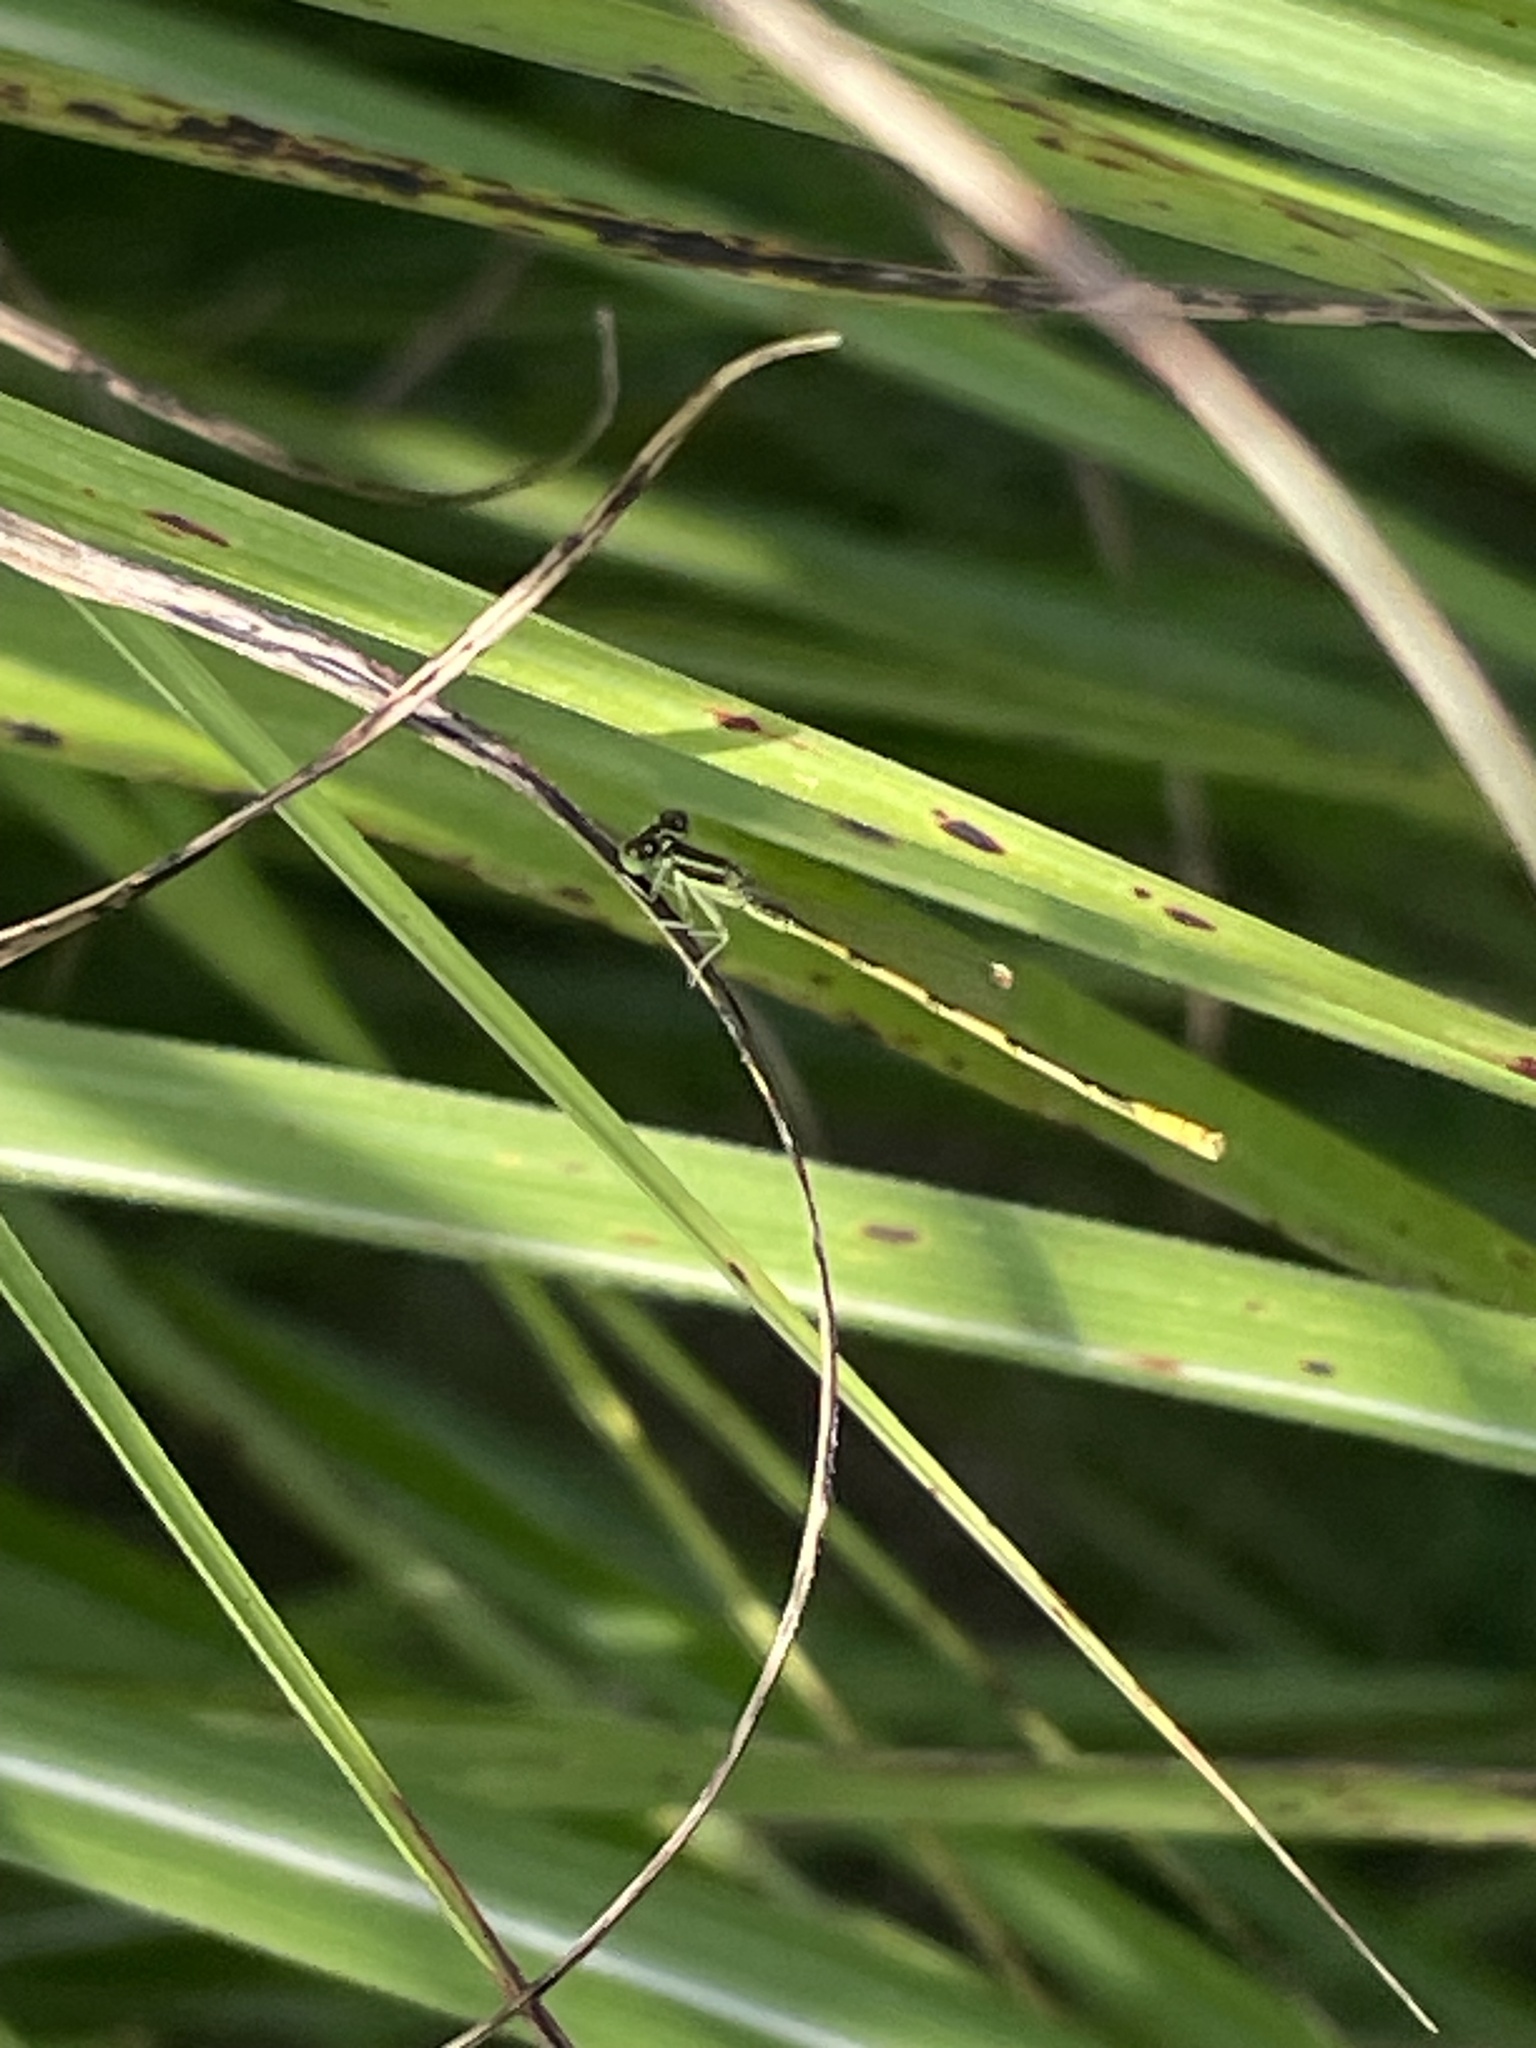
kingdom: Animalia
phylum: Arthropoda
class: Insecta
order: Odonata
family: Coenagrionidae
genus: Ischnura
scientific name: Ischnura hastata
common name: Citrine forktail
